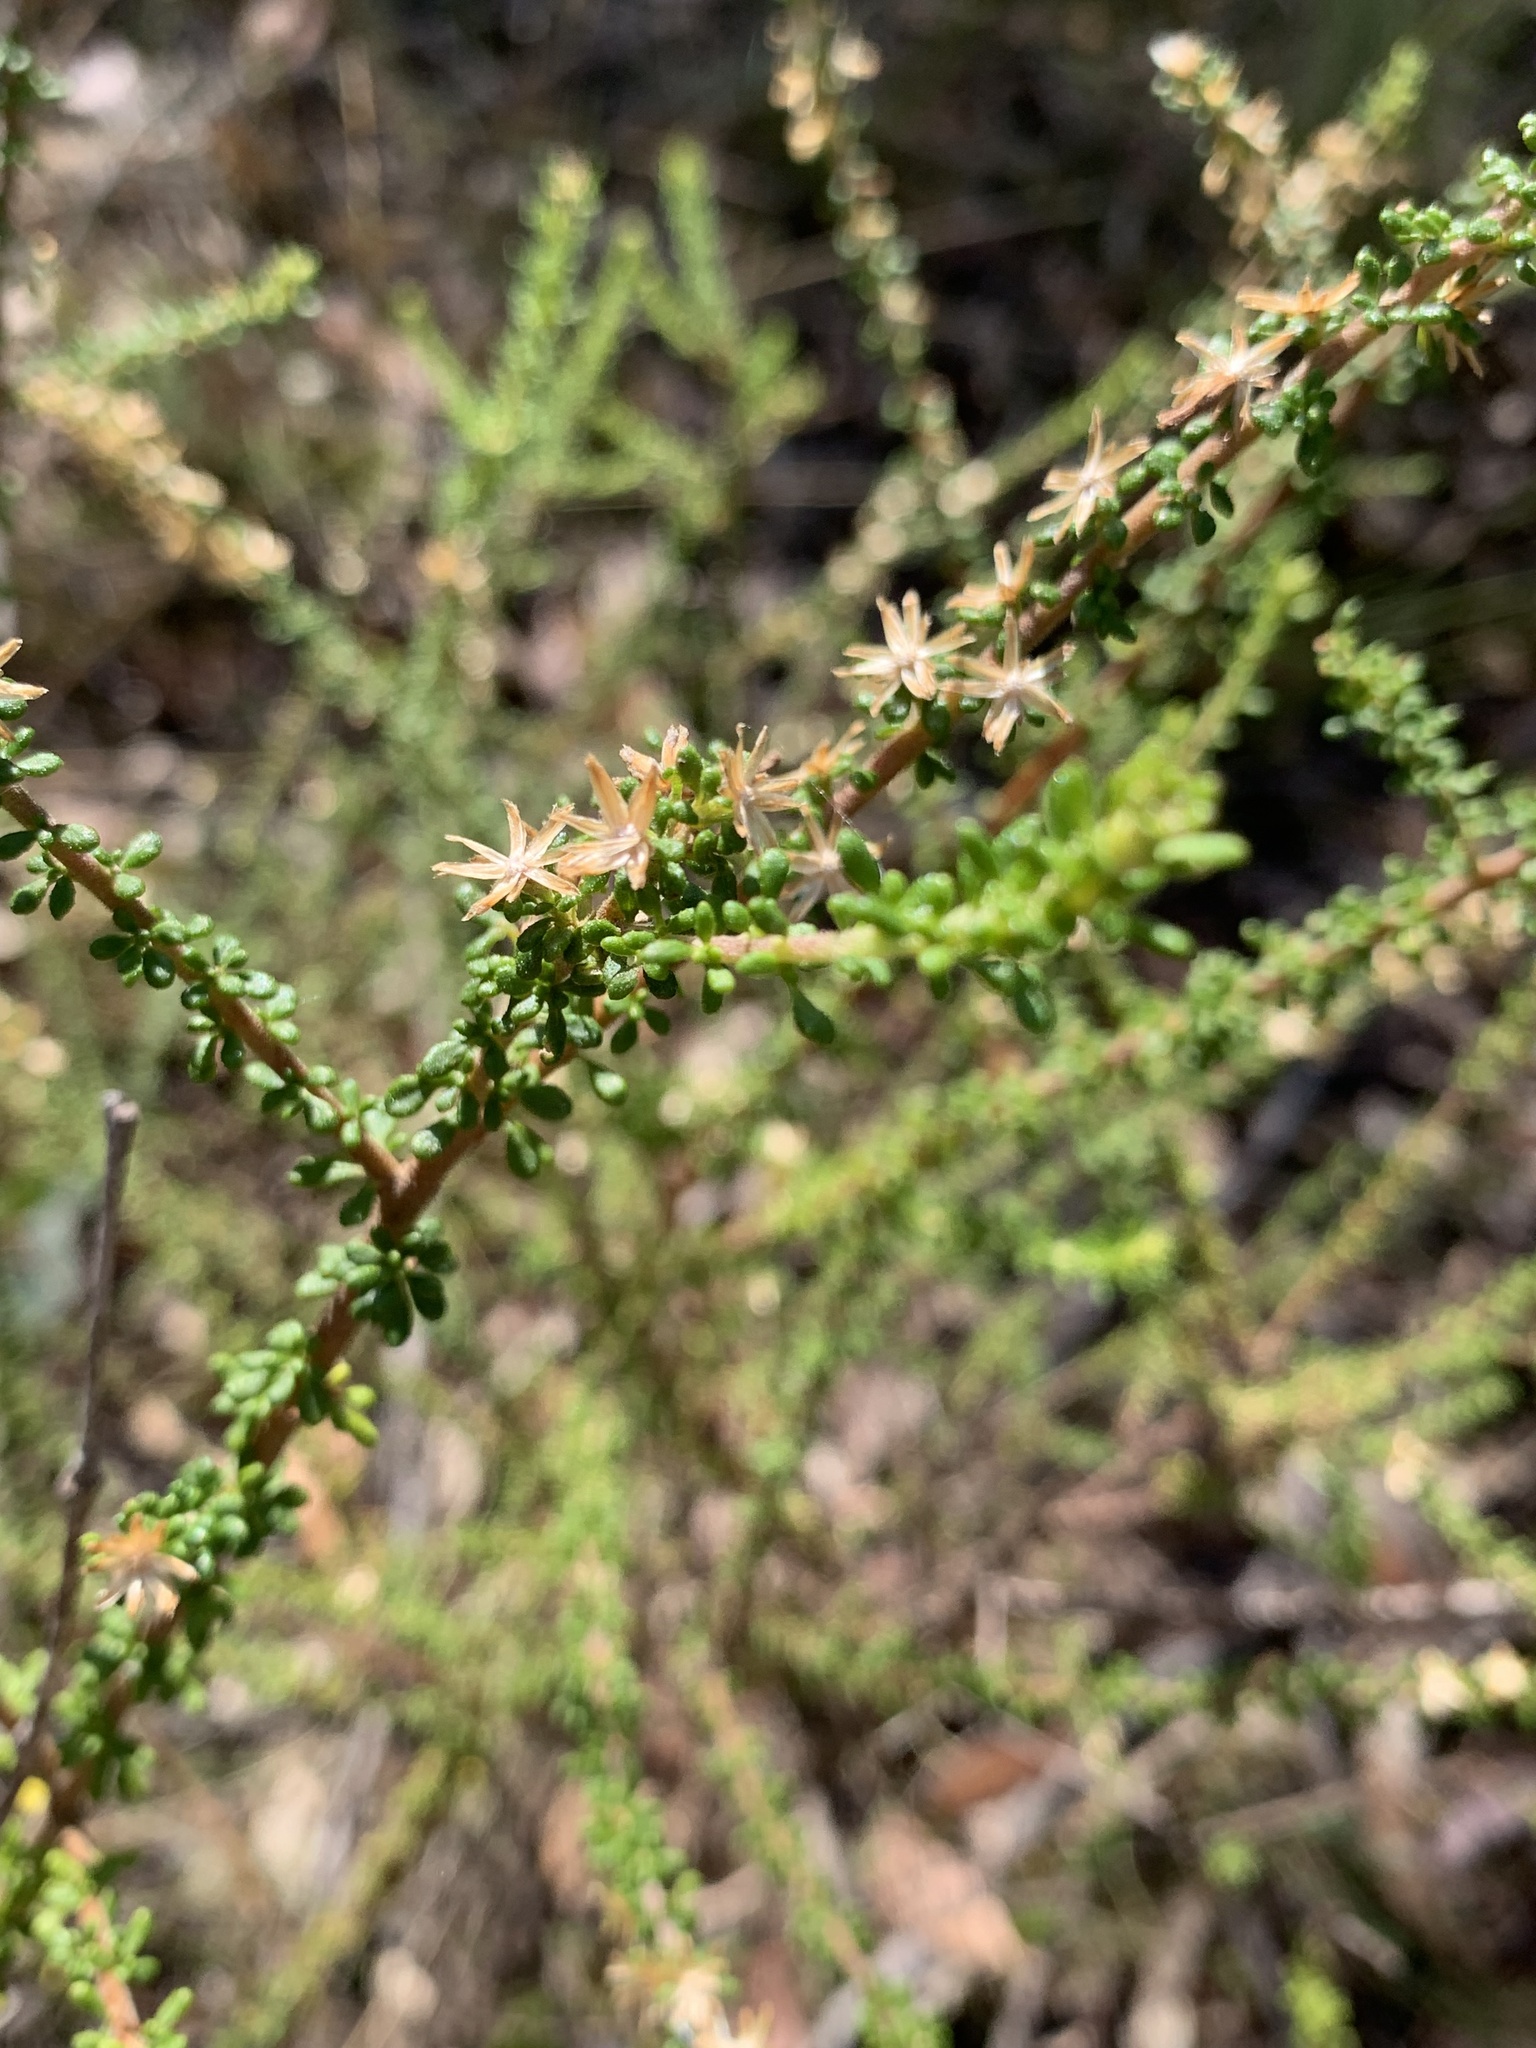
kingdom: Plantae
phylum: Tracheophyta
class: Magnoliopsida
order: Asterales
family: Asteraceae
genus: Olearia
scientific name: Olearia microphylla
